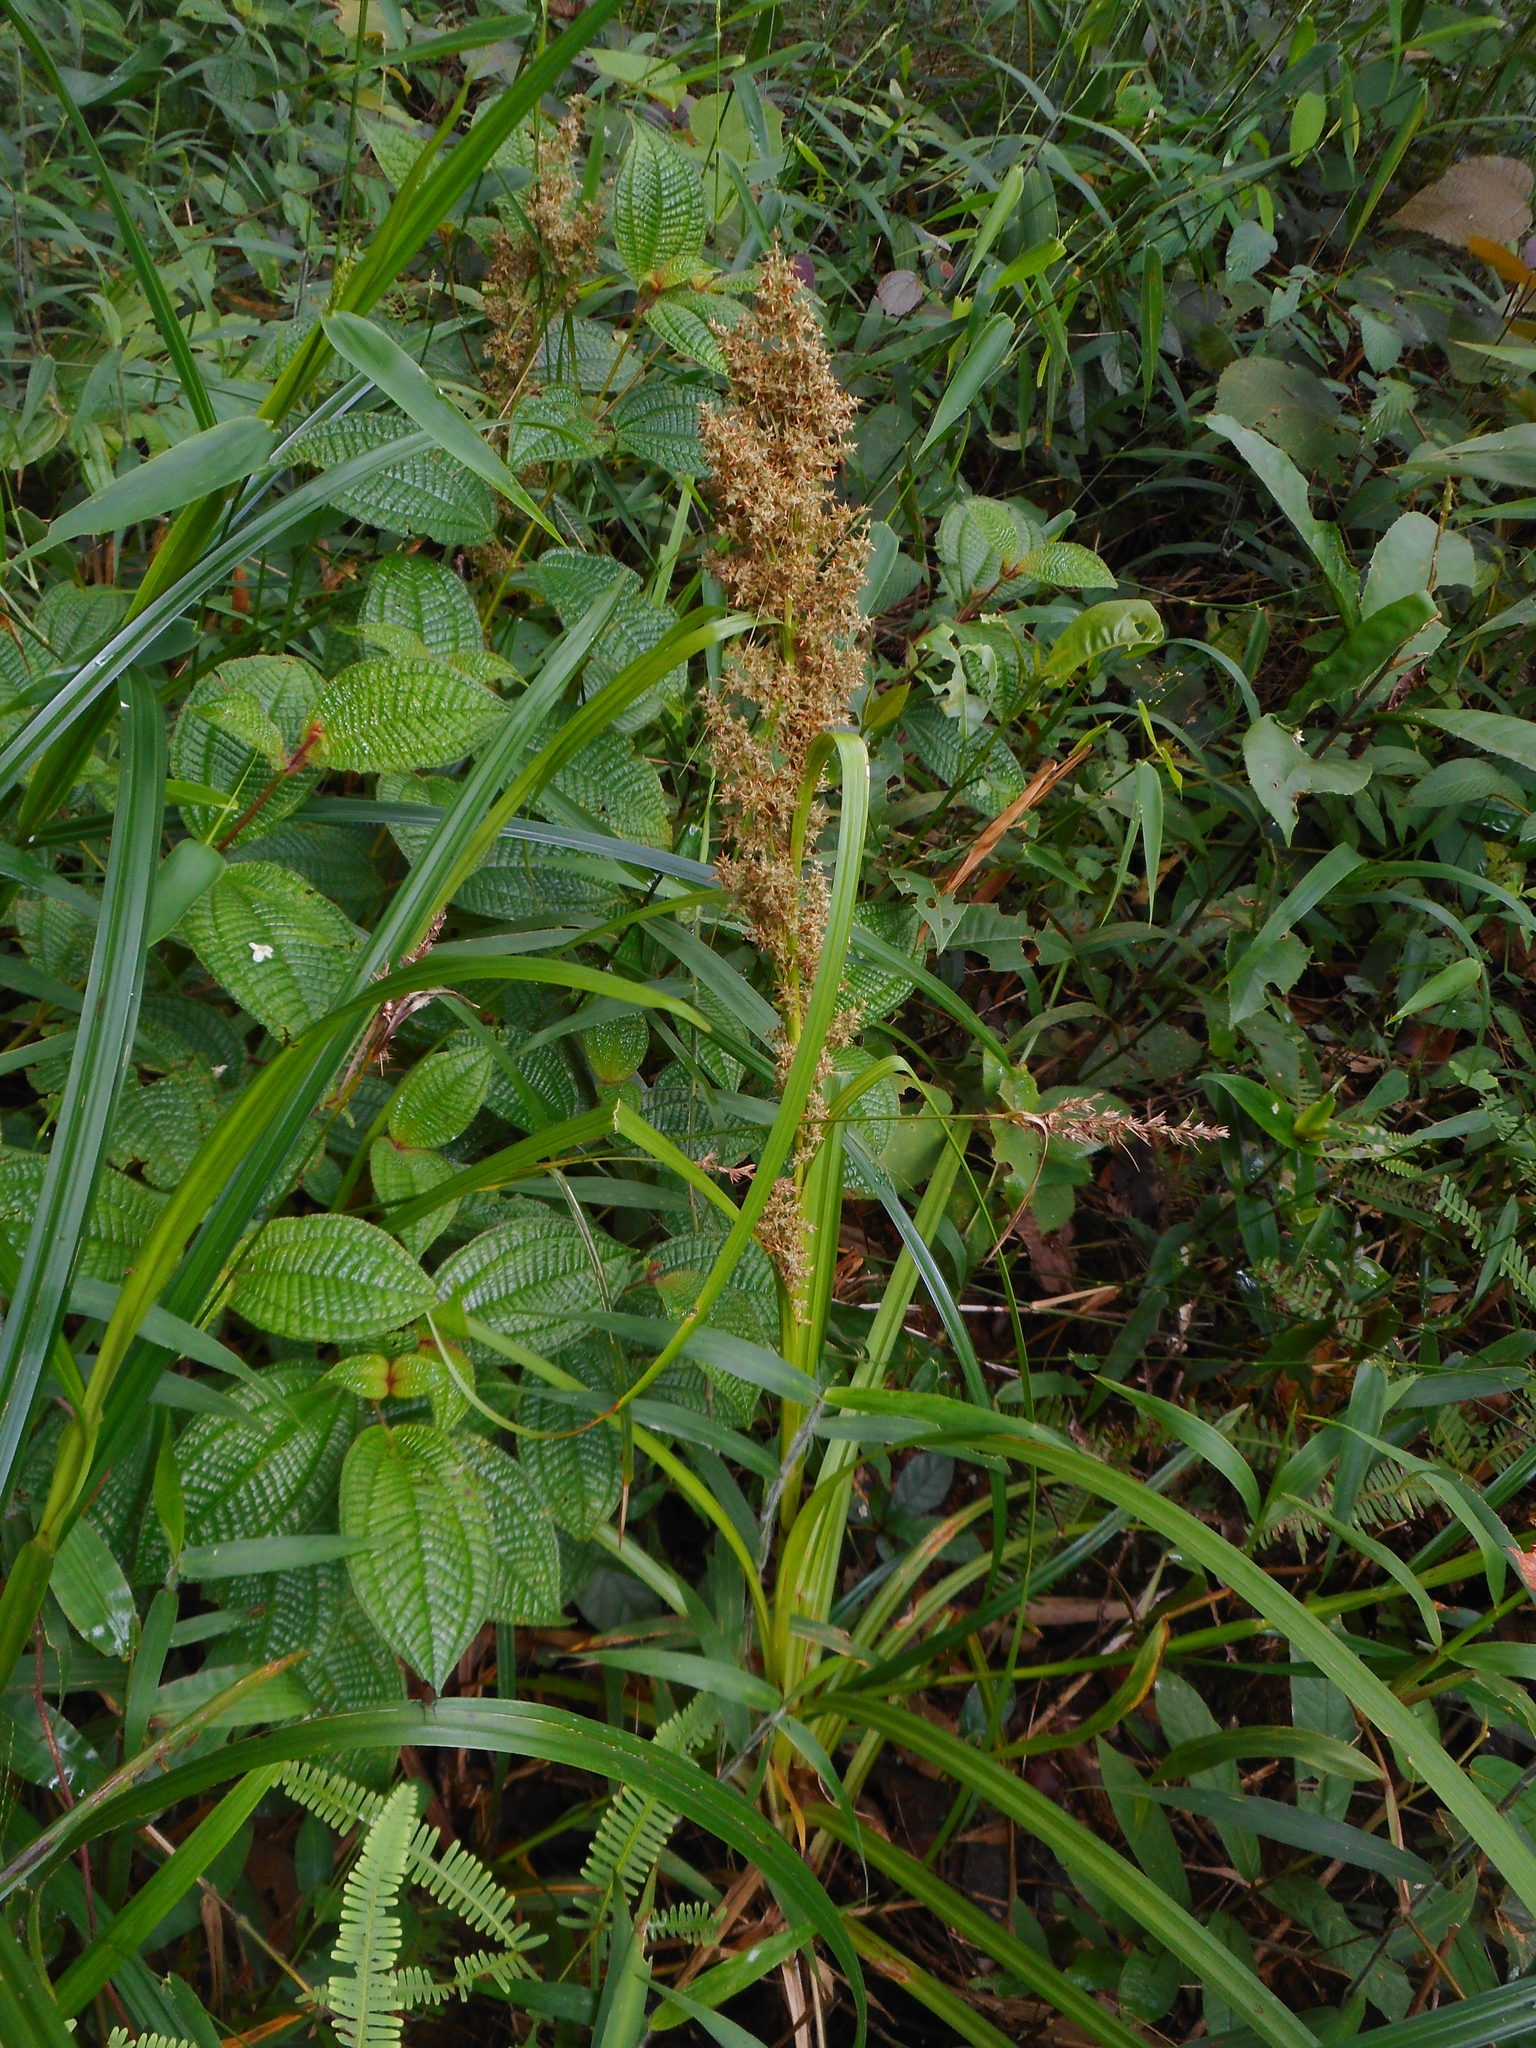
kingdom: Plantae
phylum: Tracheophyta
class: Liliopsida
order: Poales
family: Cyperaceae
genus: Carex
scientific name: Carex cruciata
